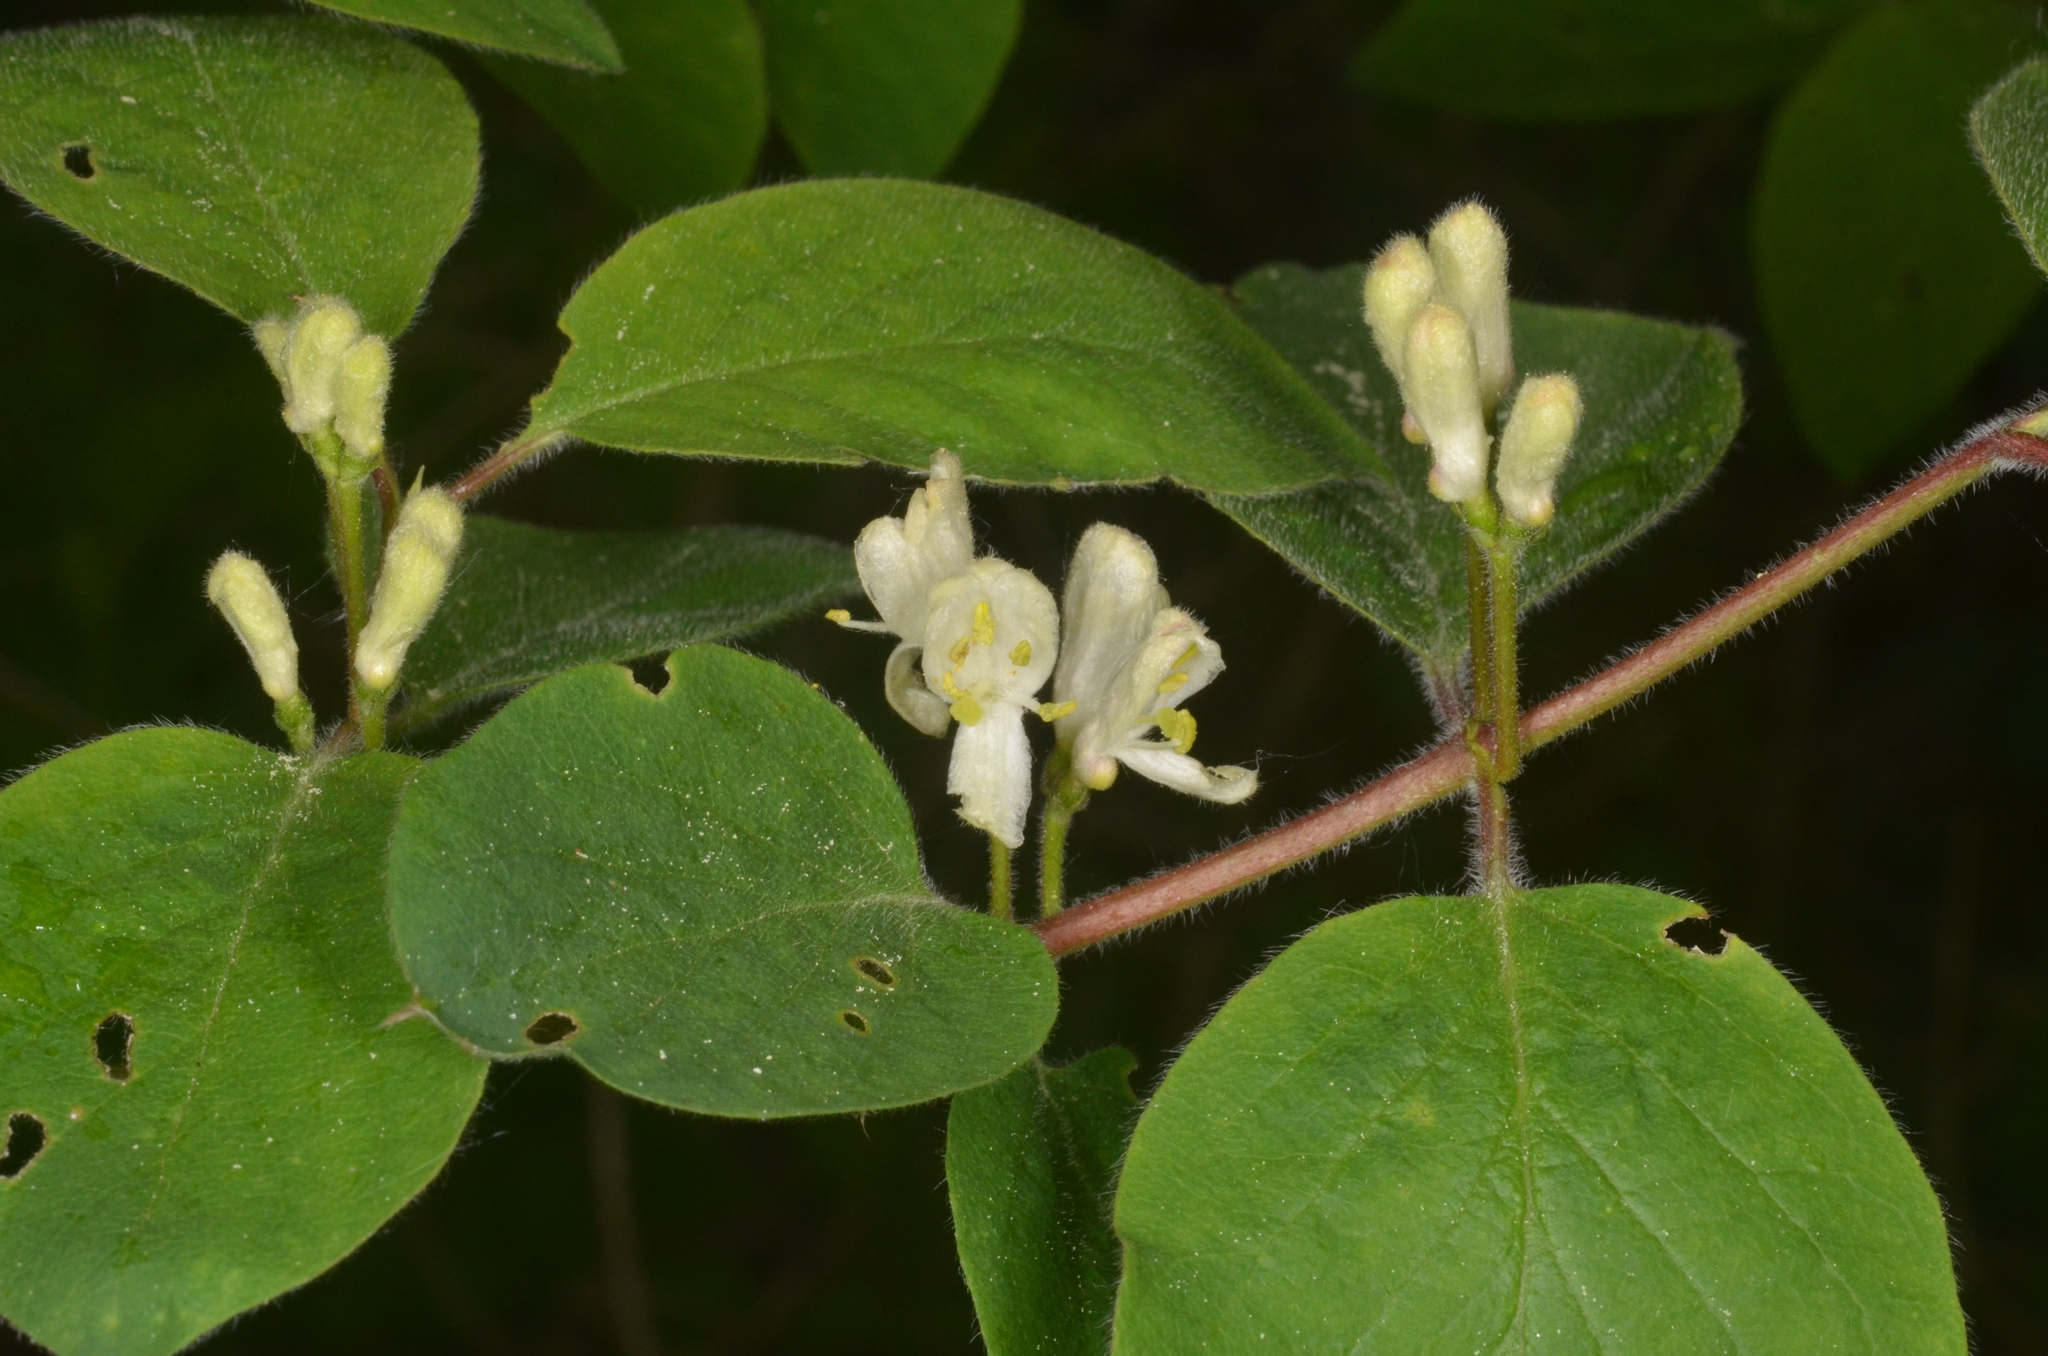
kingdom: Plantae
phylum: Tracheophyta
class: Magnoliopsida
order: Dipsacales
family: Caprifoliaceae
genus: Lonicera
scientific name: Lonicera xylosteum
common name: Fly honeysuckle
